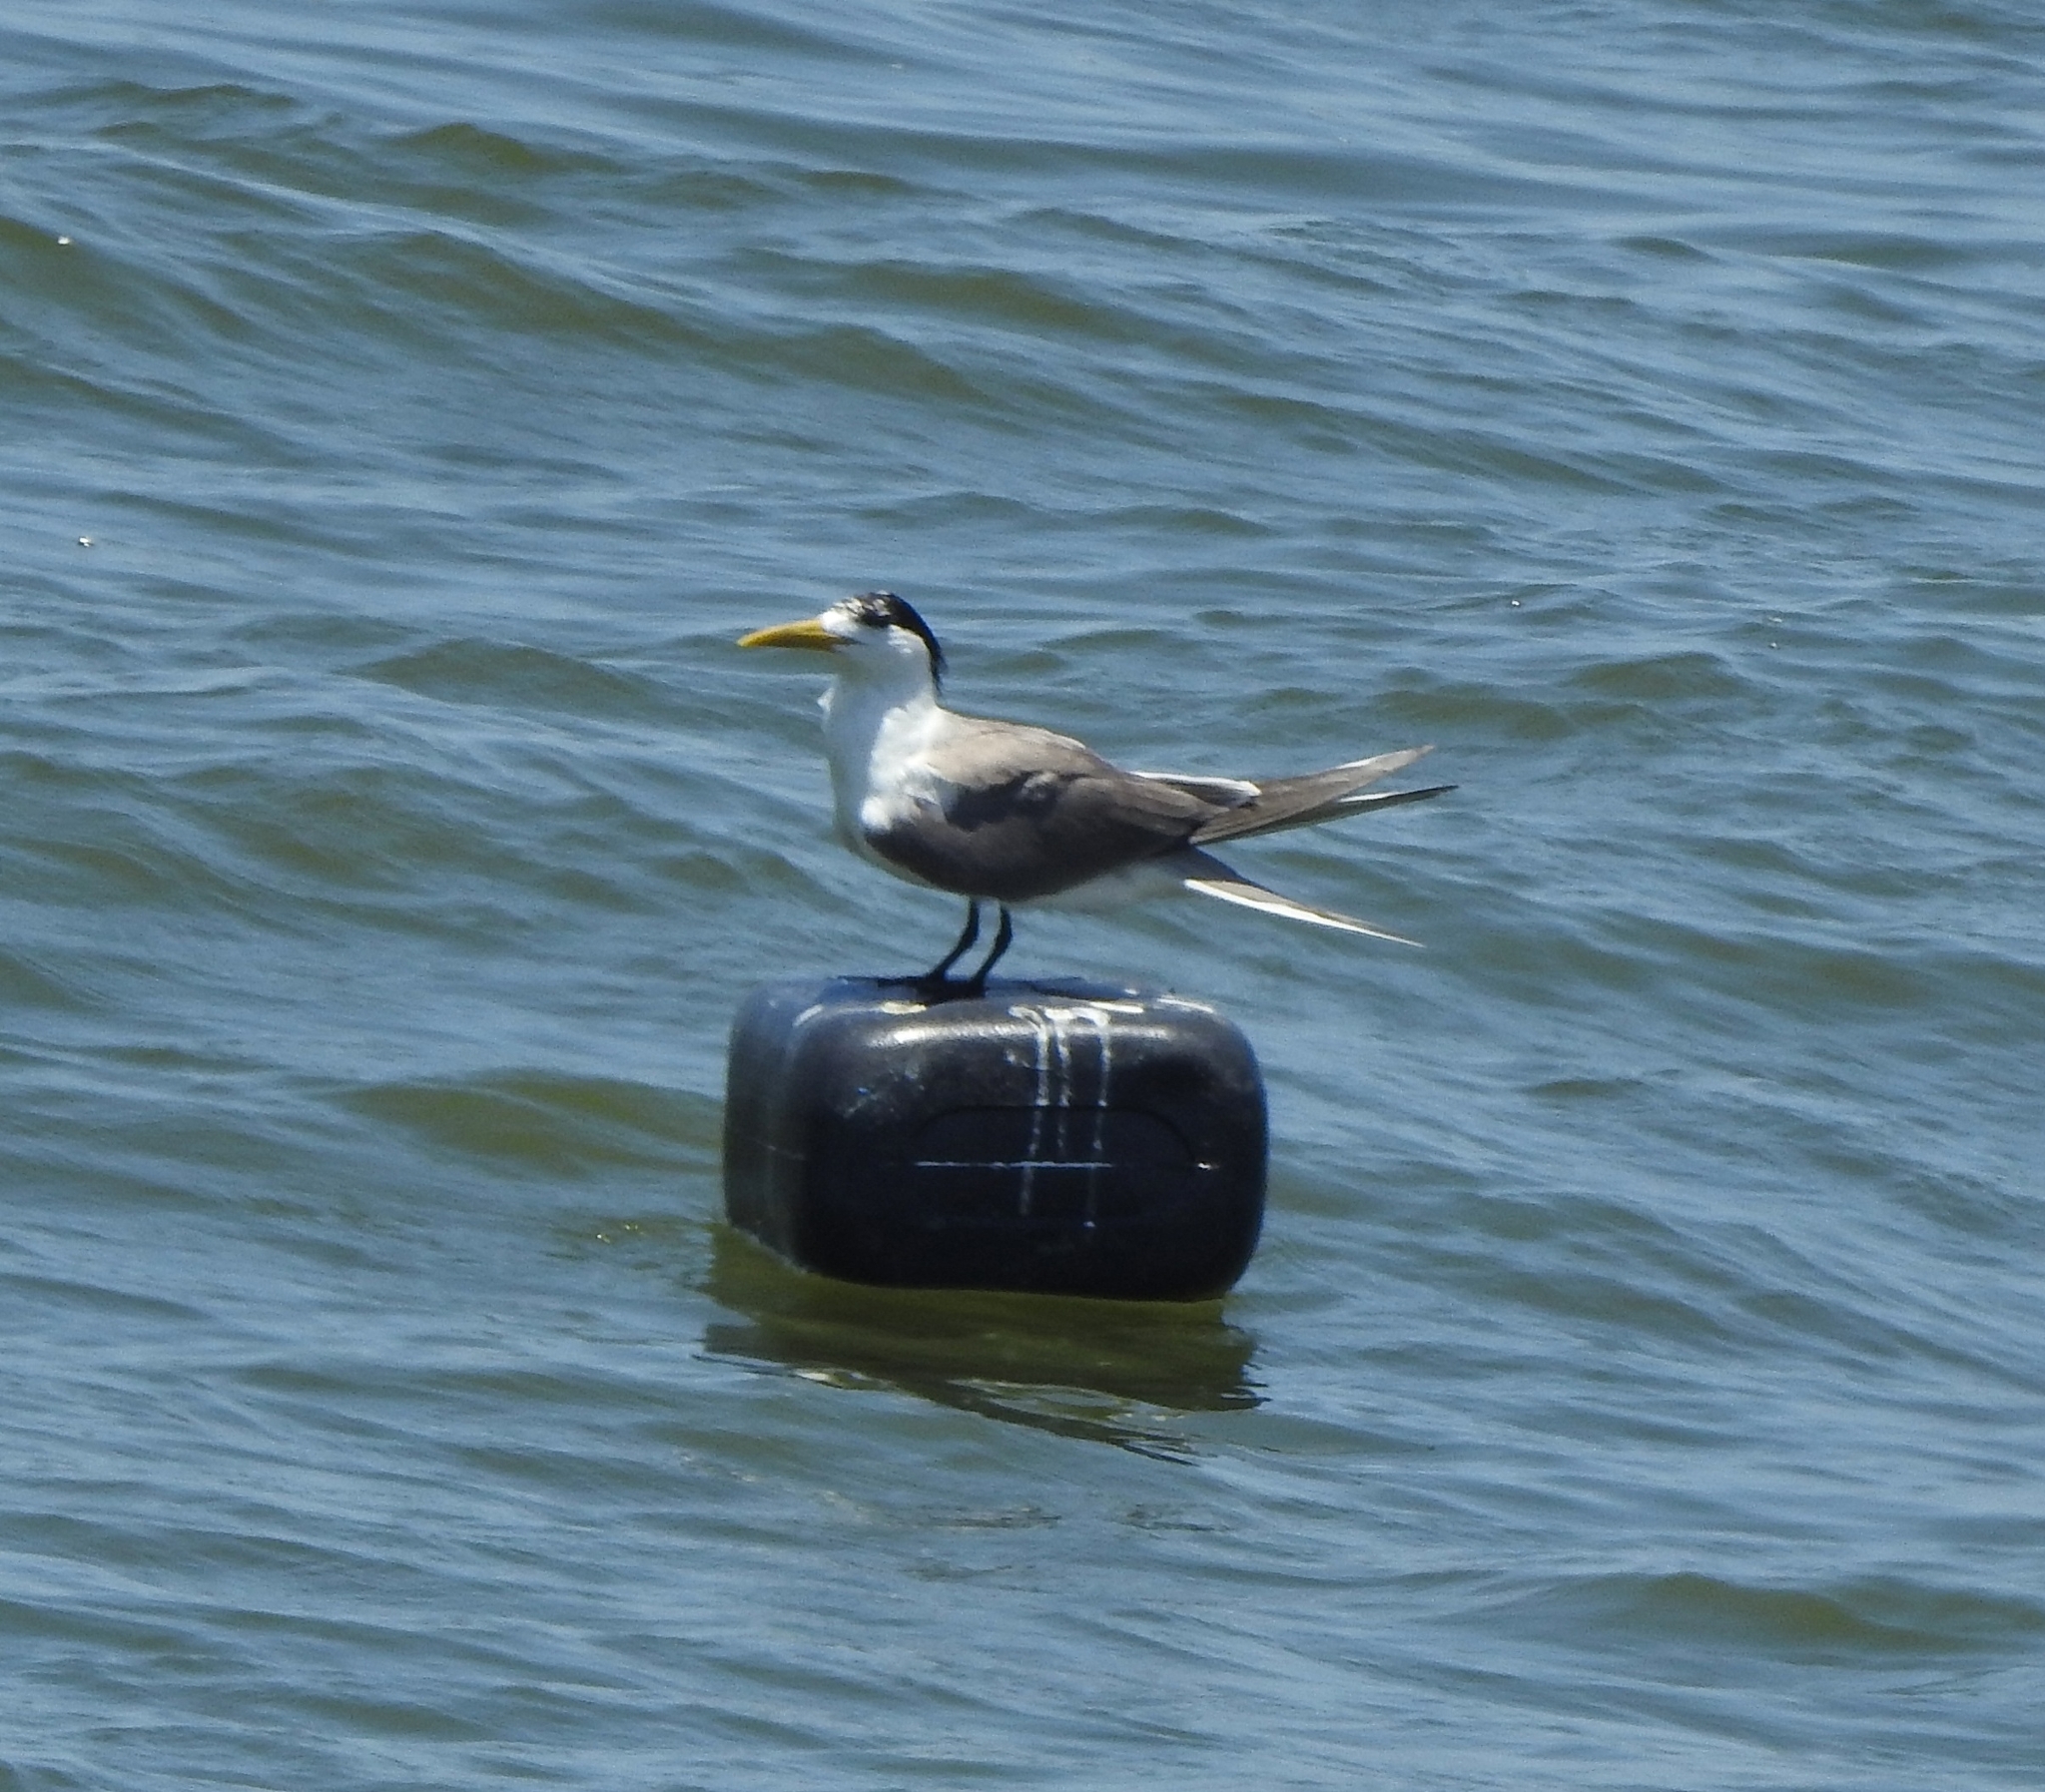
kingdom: Animalia
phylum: Chordata
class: Aves
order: Charadriiformes
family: Laridae
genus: Thalasseus
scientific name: Thalasseus bergii
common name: Greater crested tern
